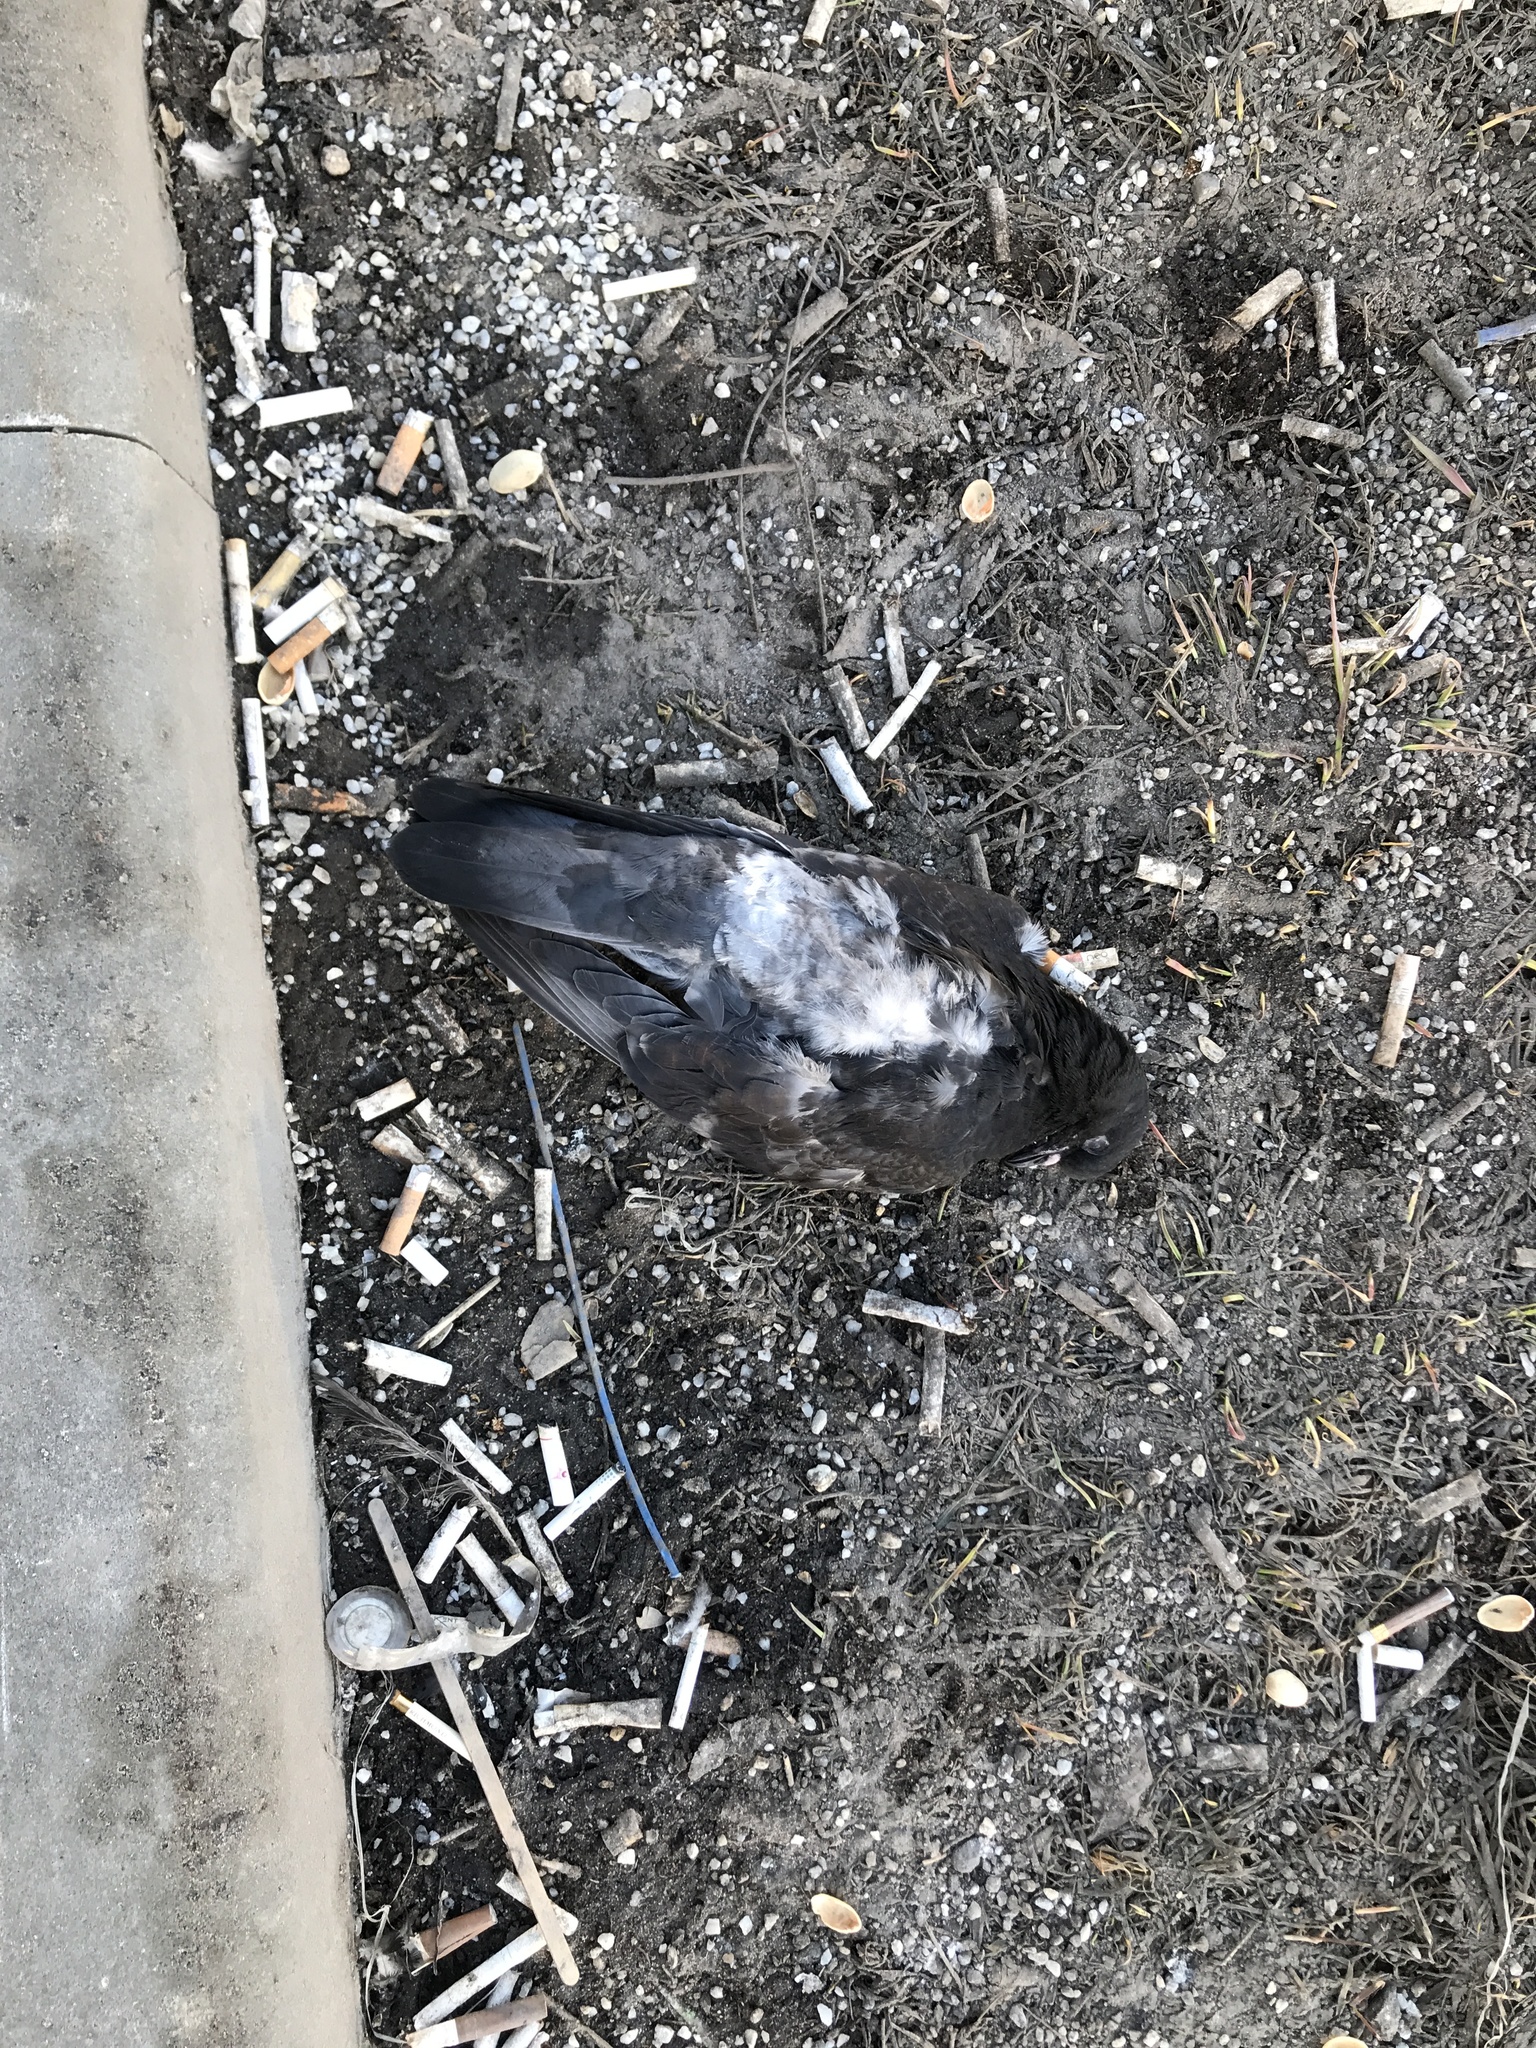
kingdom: Animalia
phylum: Chordata
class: Aves
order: Columbiformes
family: Columbidae
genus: Columba
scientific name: Columba livia
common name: Rock pigeon
